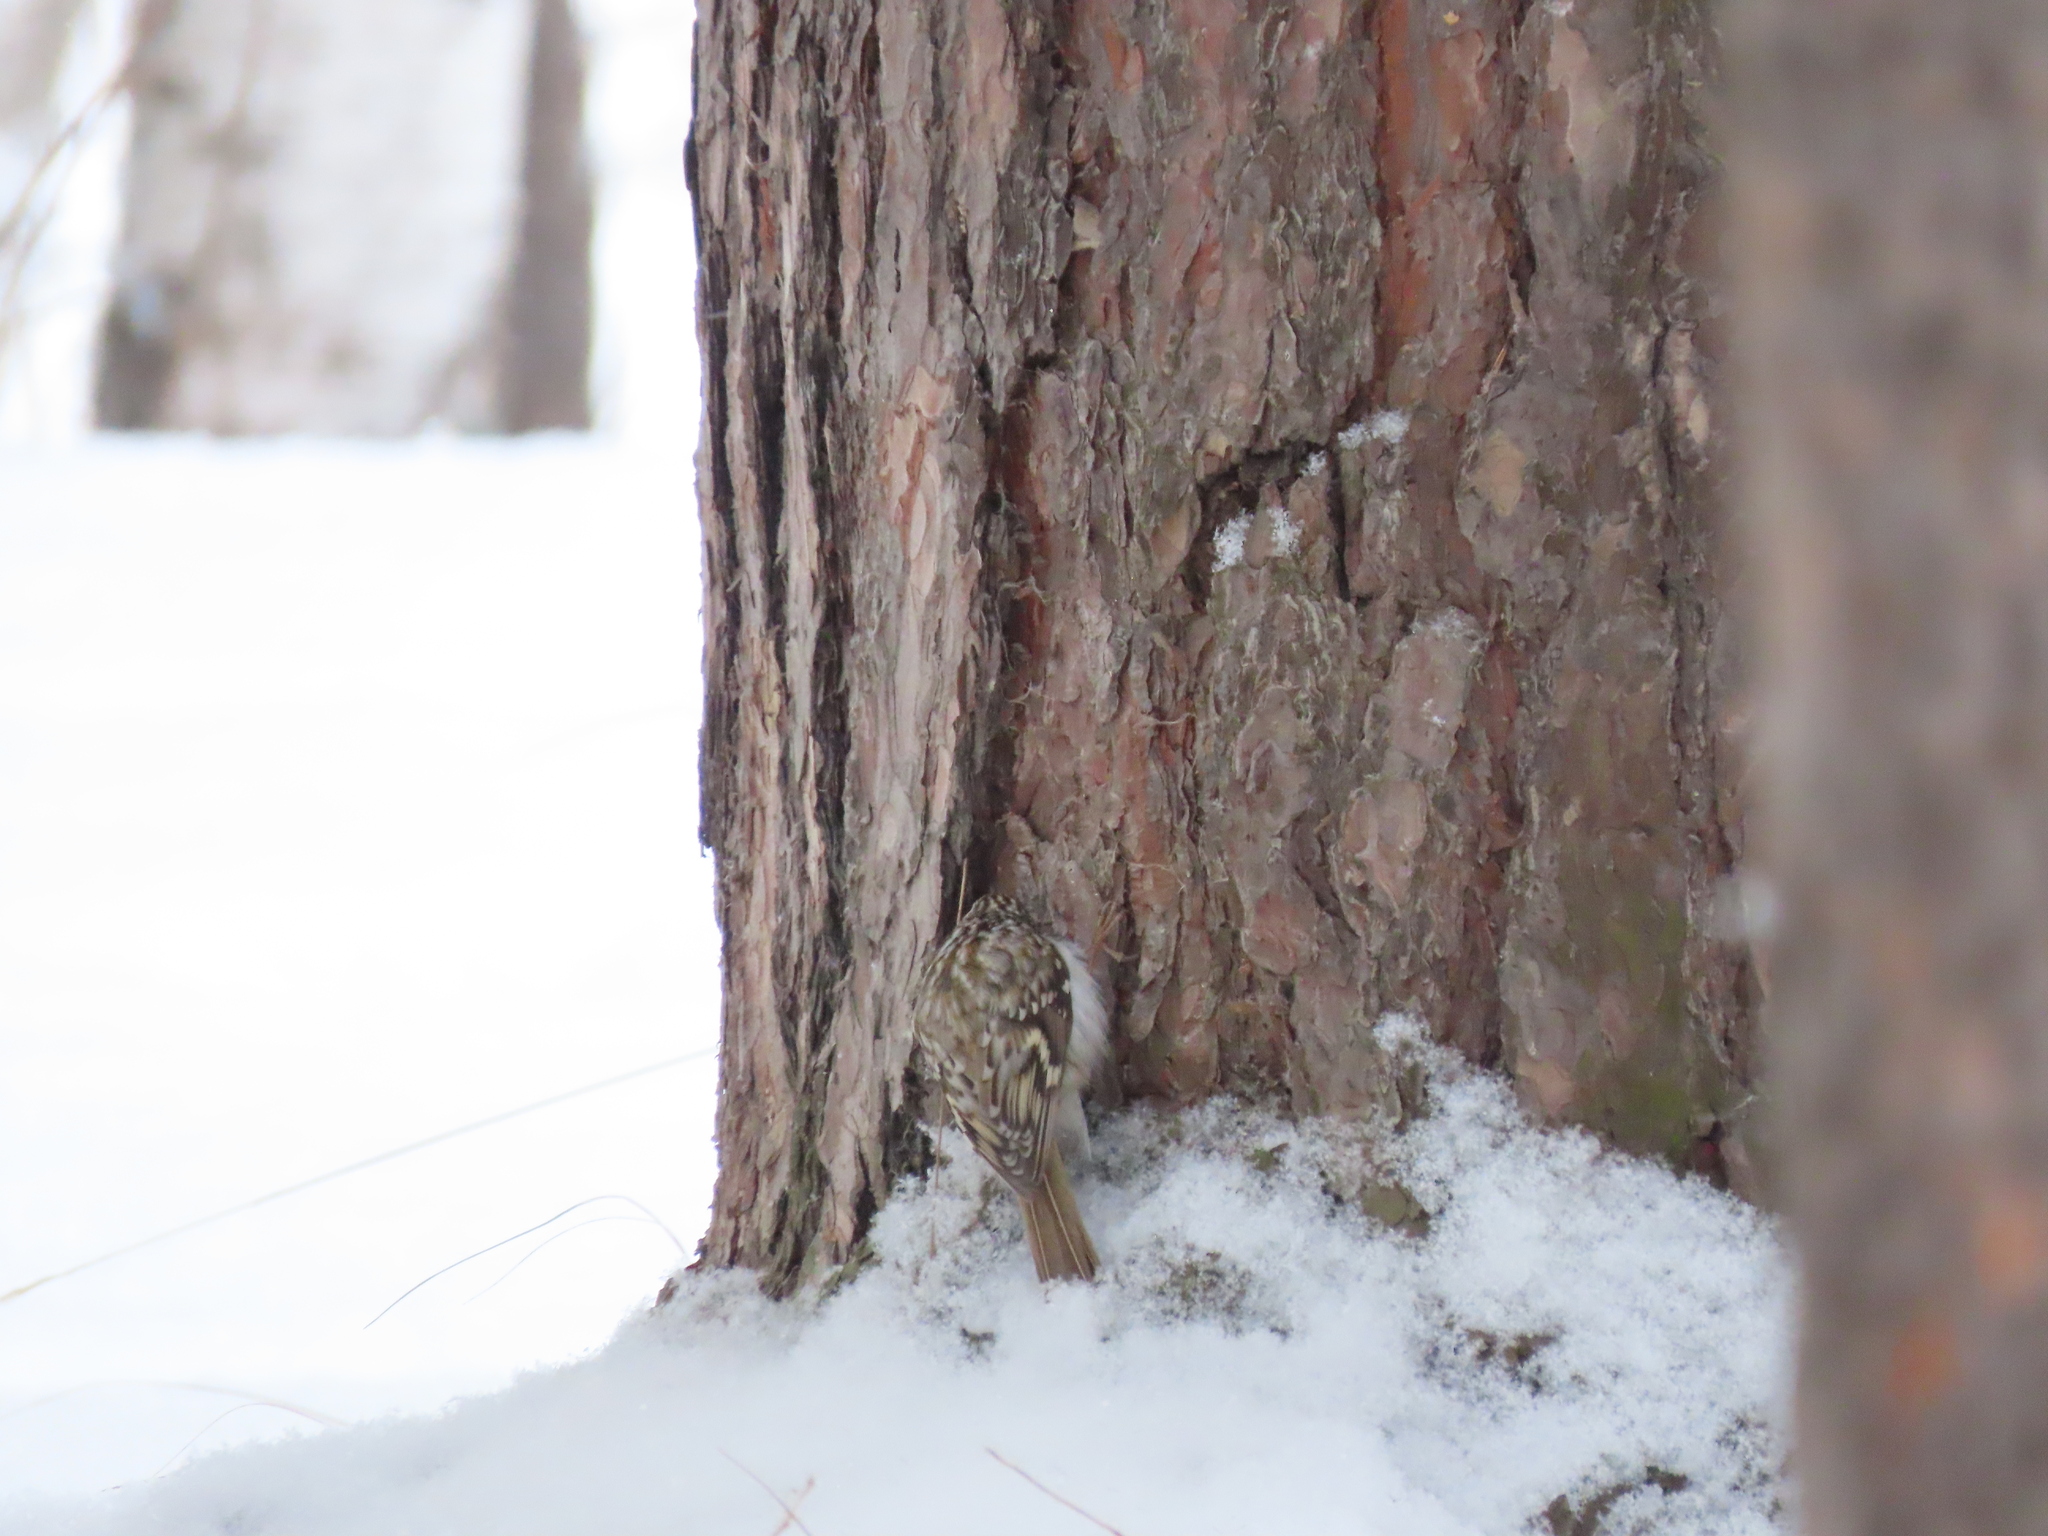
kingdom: Animalia
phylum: Chordata
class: Aves
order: Passeriformes
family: Certhiidae
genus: Certhia
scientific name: Certhia familiaris
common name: Eurasian treecreeper
